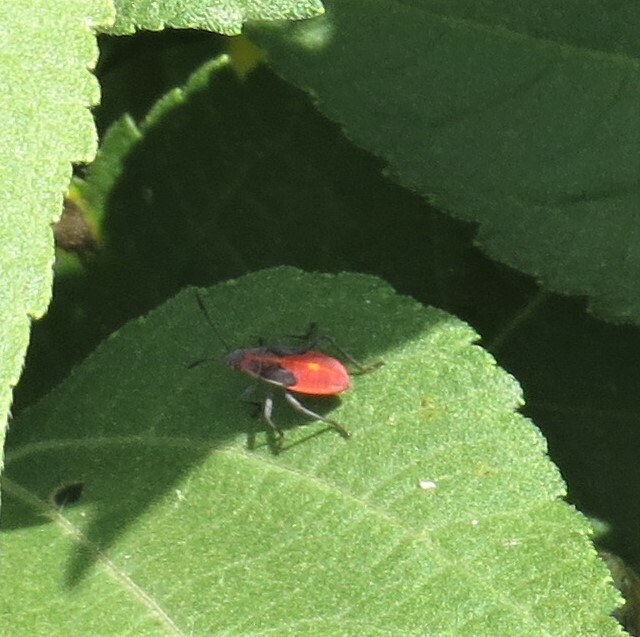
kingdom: Animalia
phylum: Arthropoda
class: Insecta
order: Hemiptera
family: Rhopalidae
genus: Boisea
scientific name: Boisea trivittata
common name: Boxelder bug
